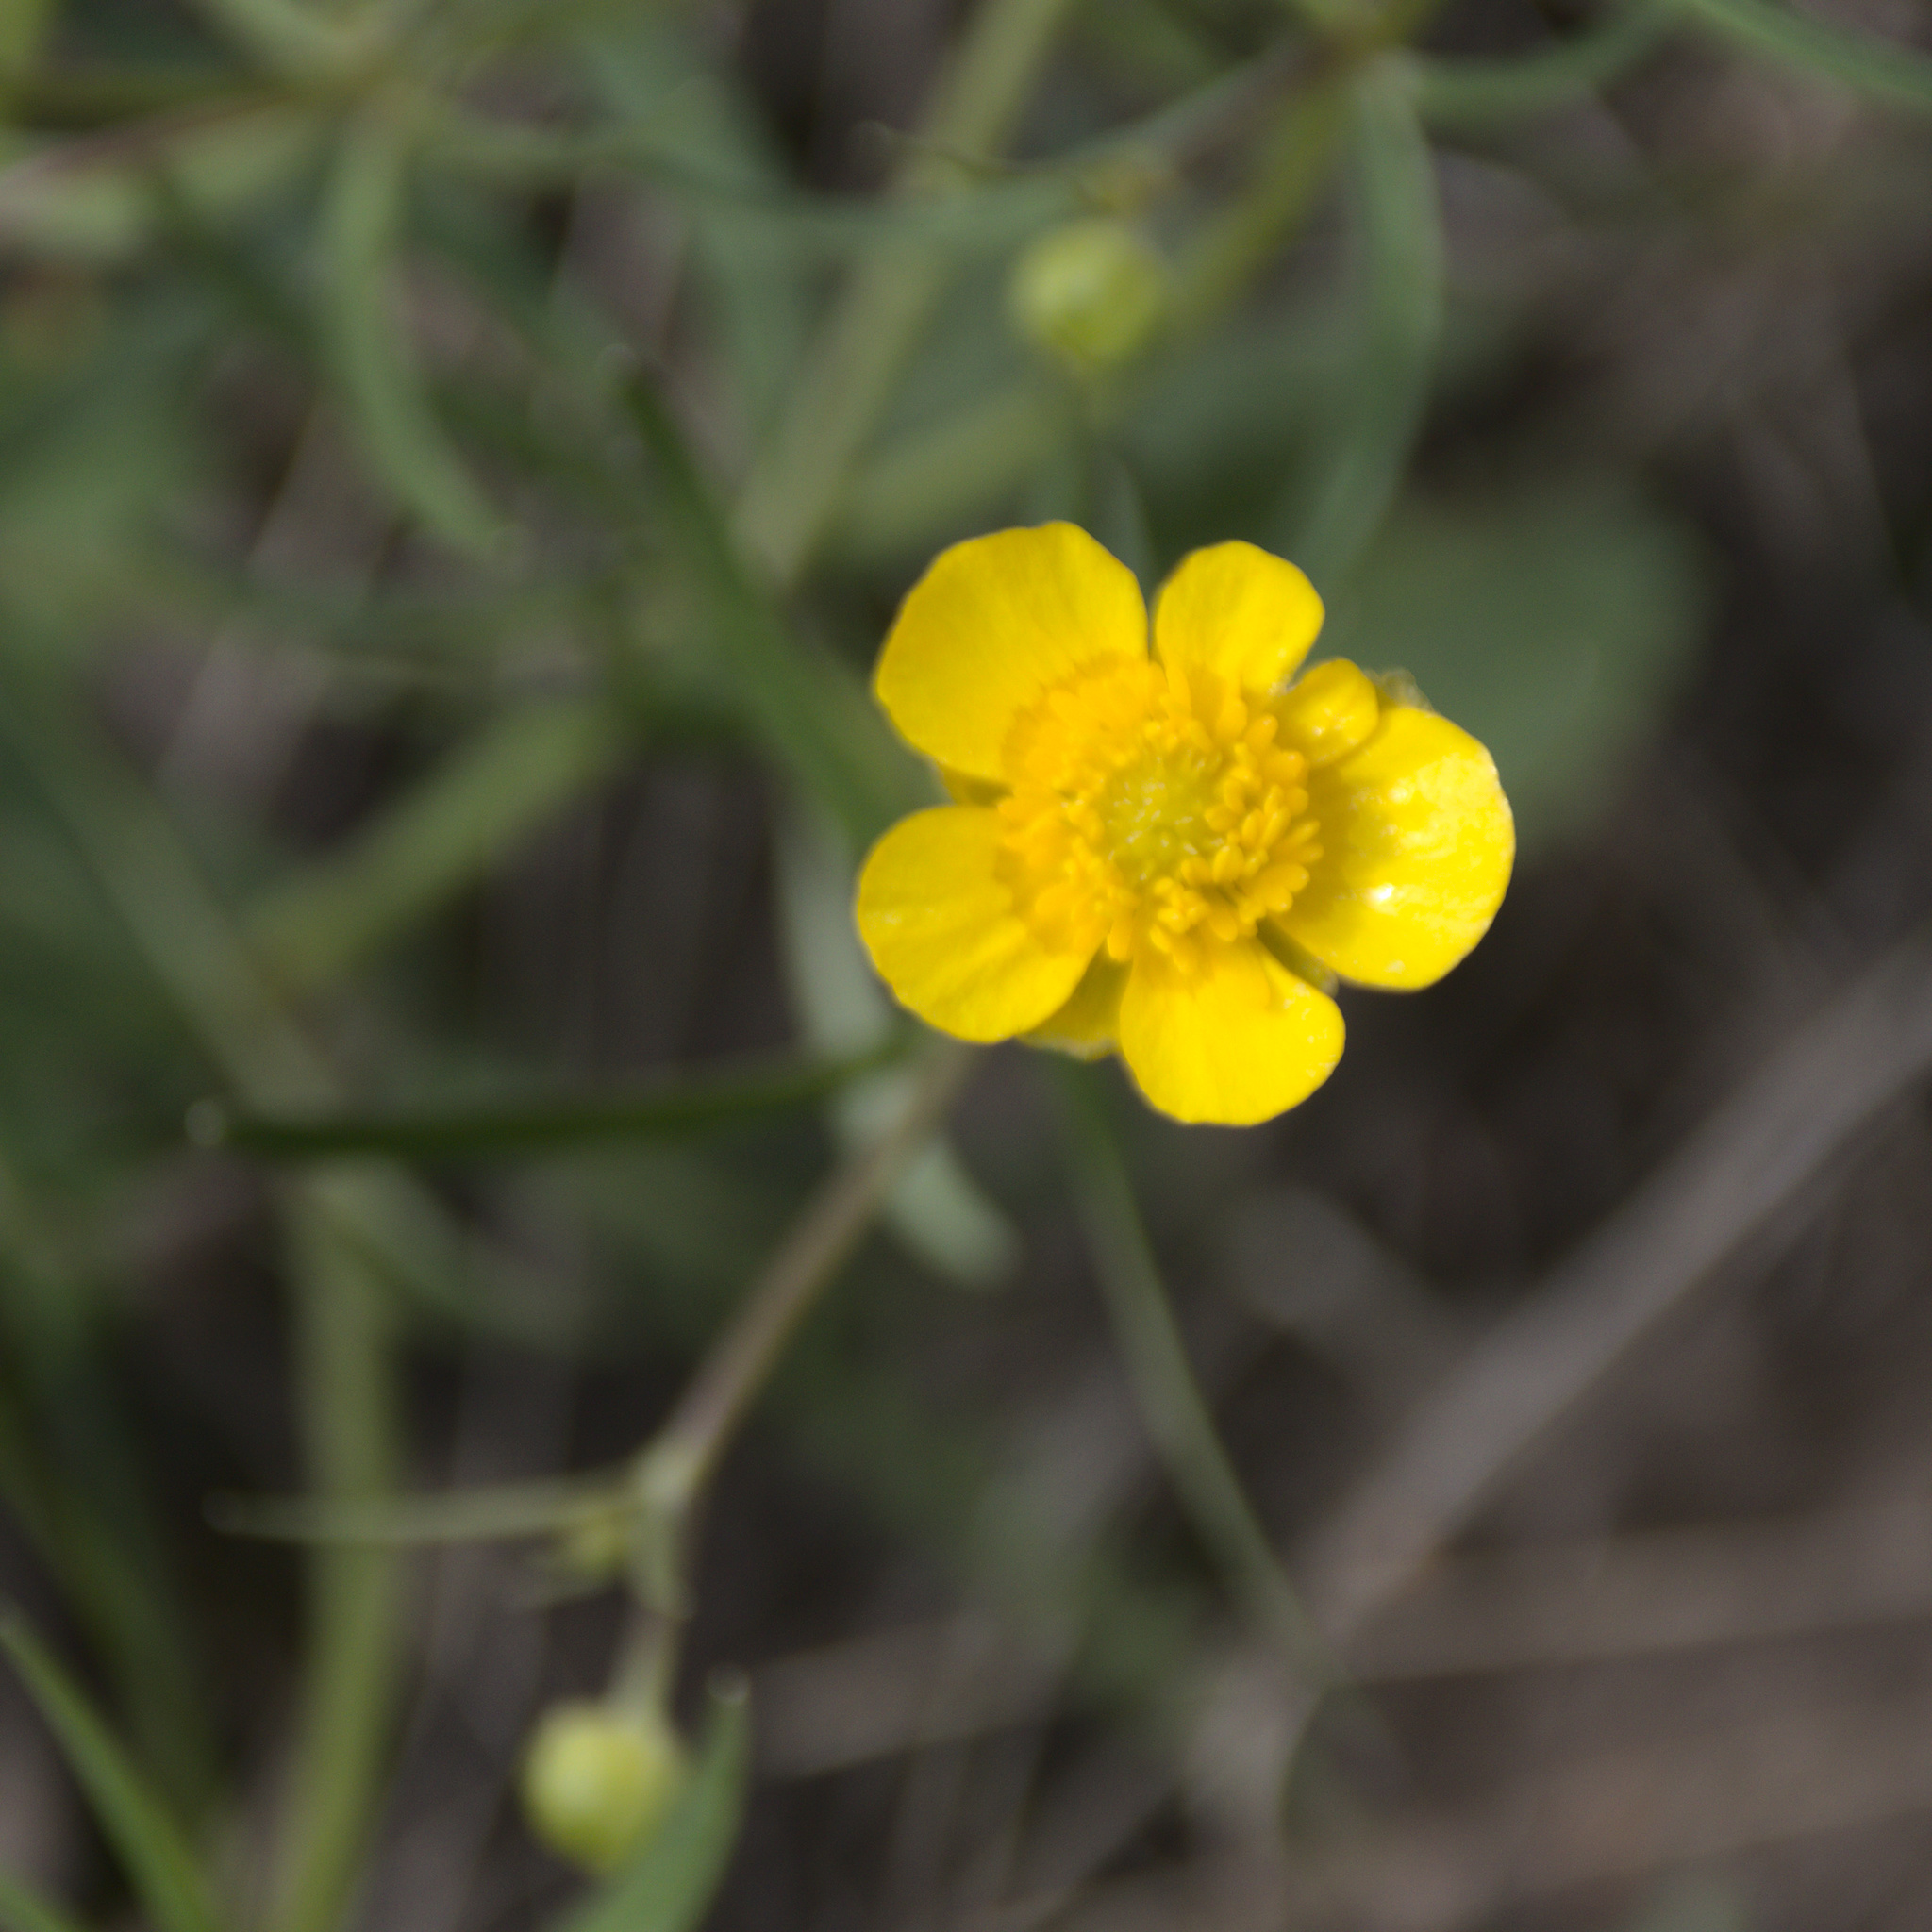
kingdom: Plantae
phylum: Tracheophyta
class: Magnoliopsida
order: Ranunculales
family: Ranunculaceae
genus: Ranunculus
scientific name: Ranunculus auricomus
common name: Goldilocks buttercup
